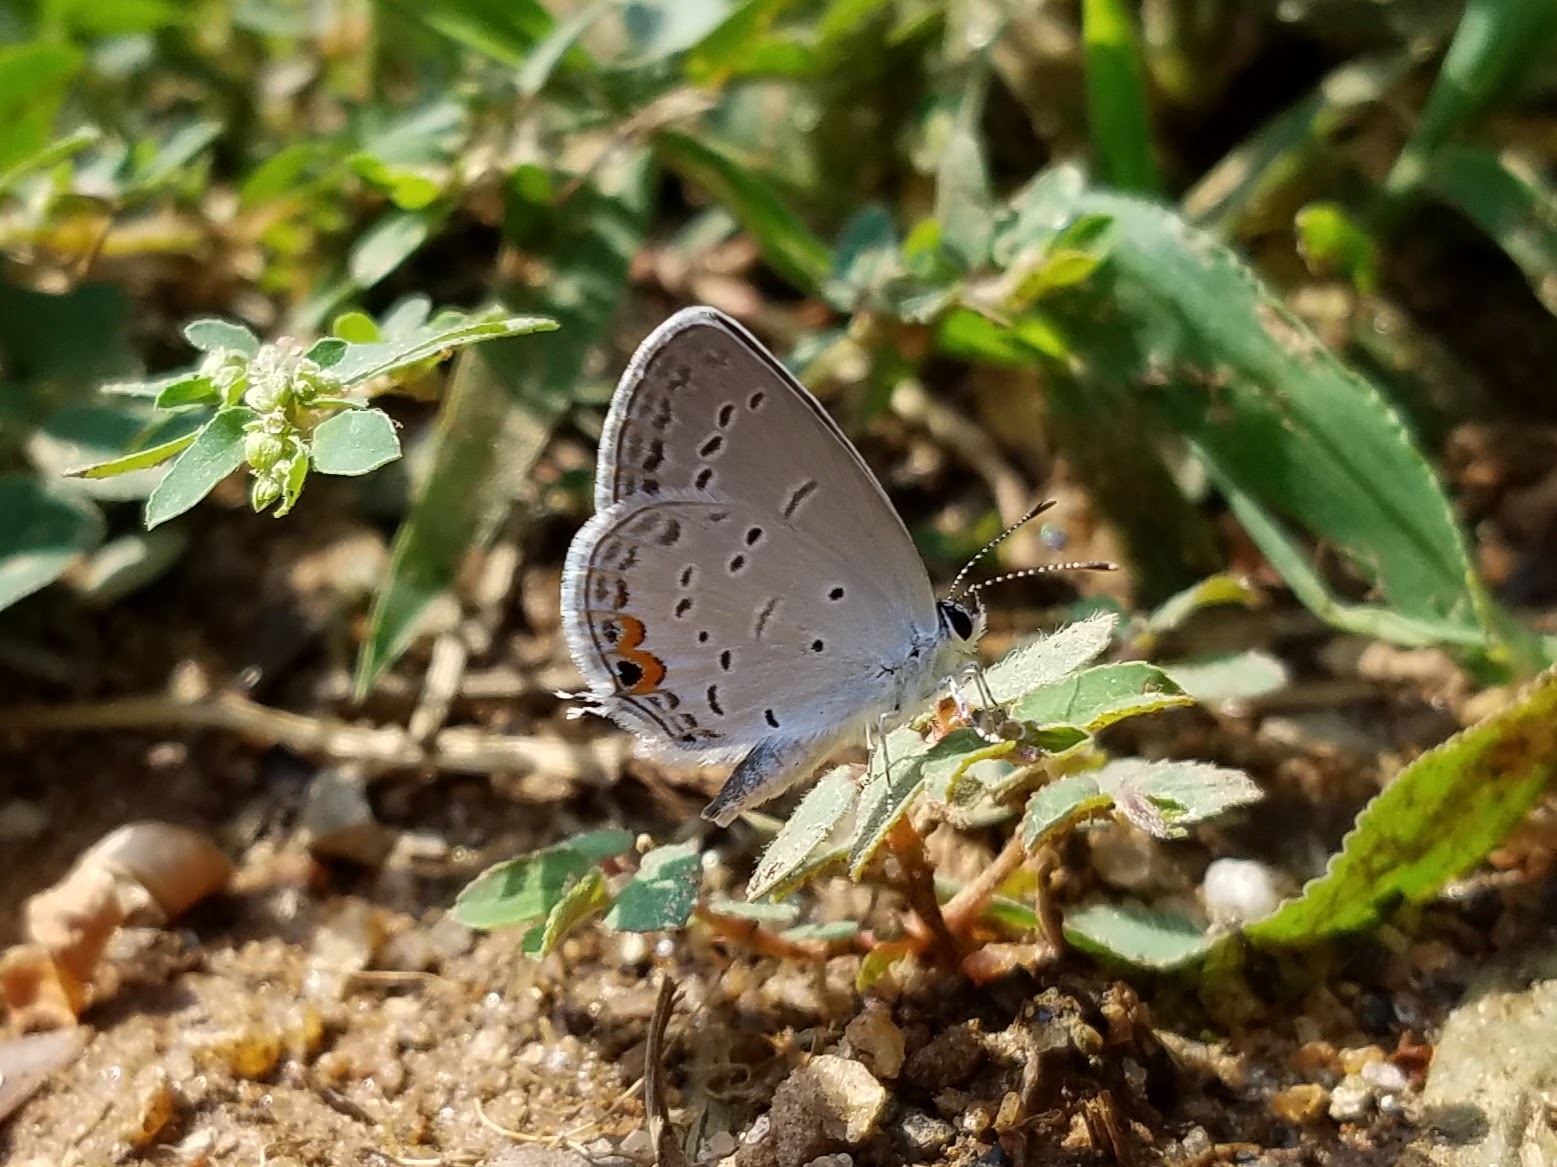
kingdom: Animalia
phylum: Arthropoda
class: Insecta
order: Lepidoptera
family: Lycaenidae
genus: Elkalyce
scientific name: Elkalyce comyntas
